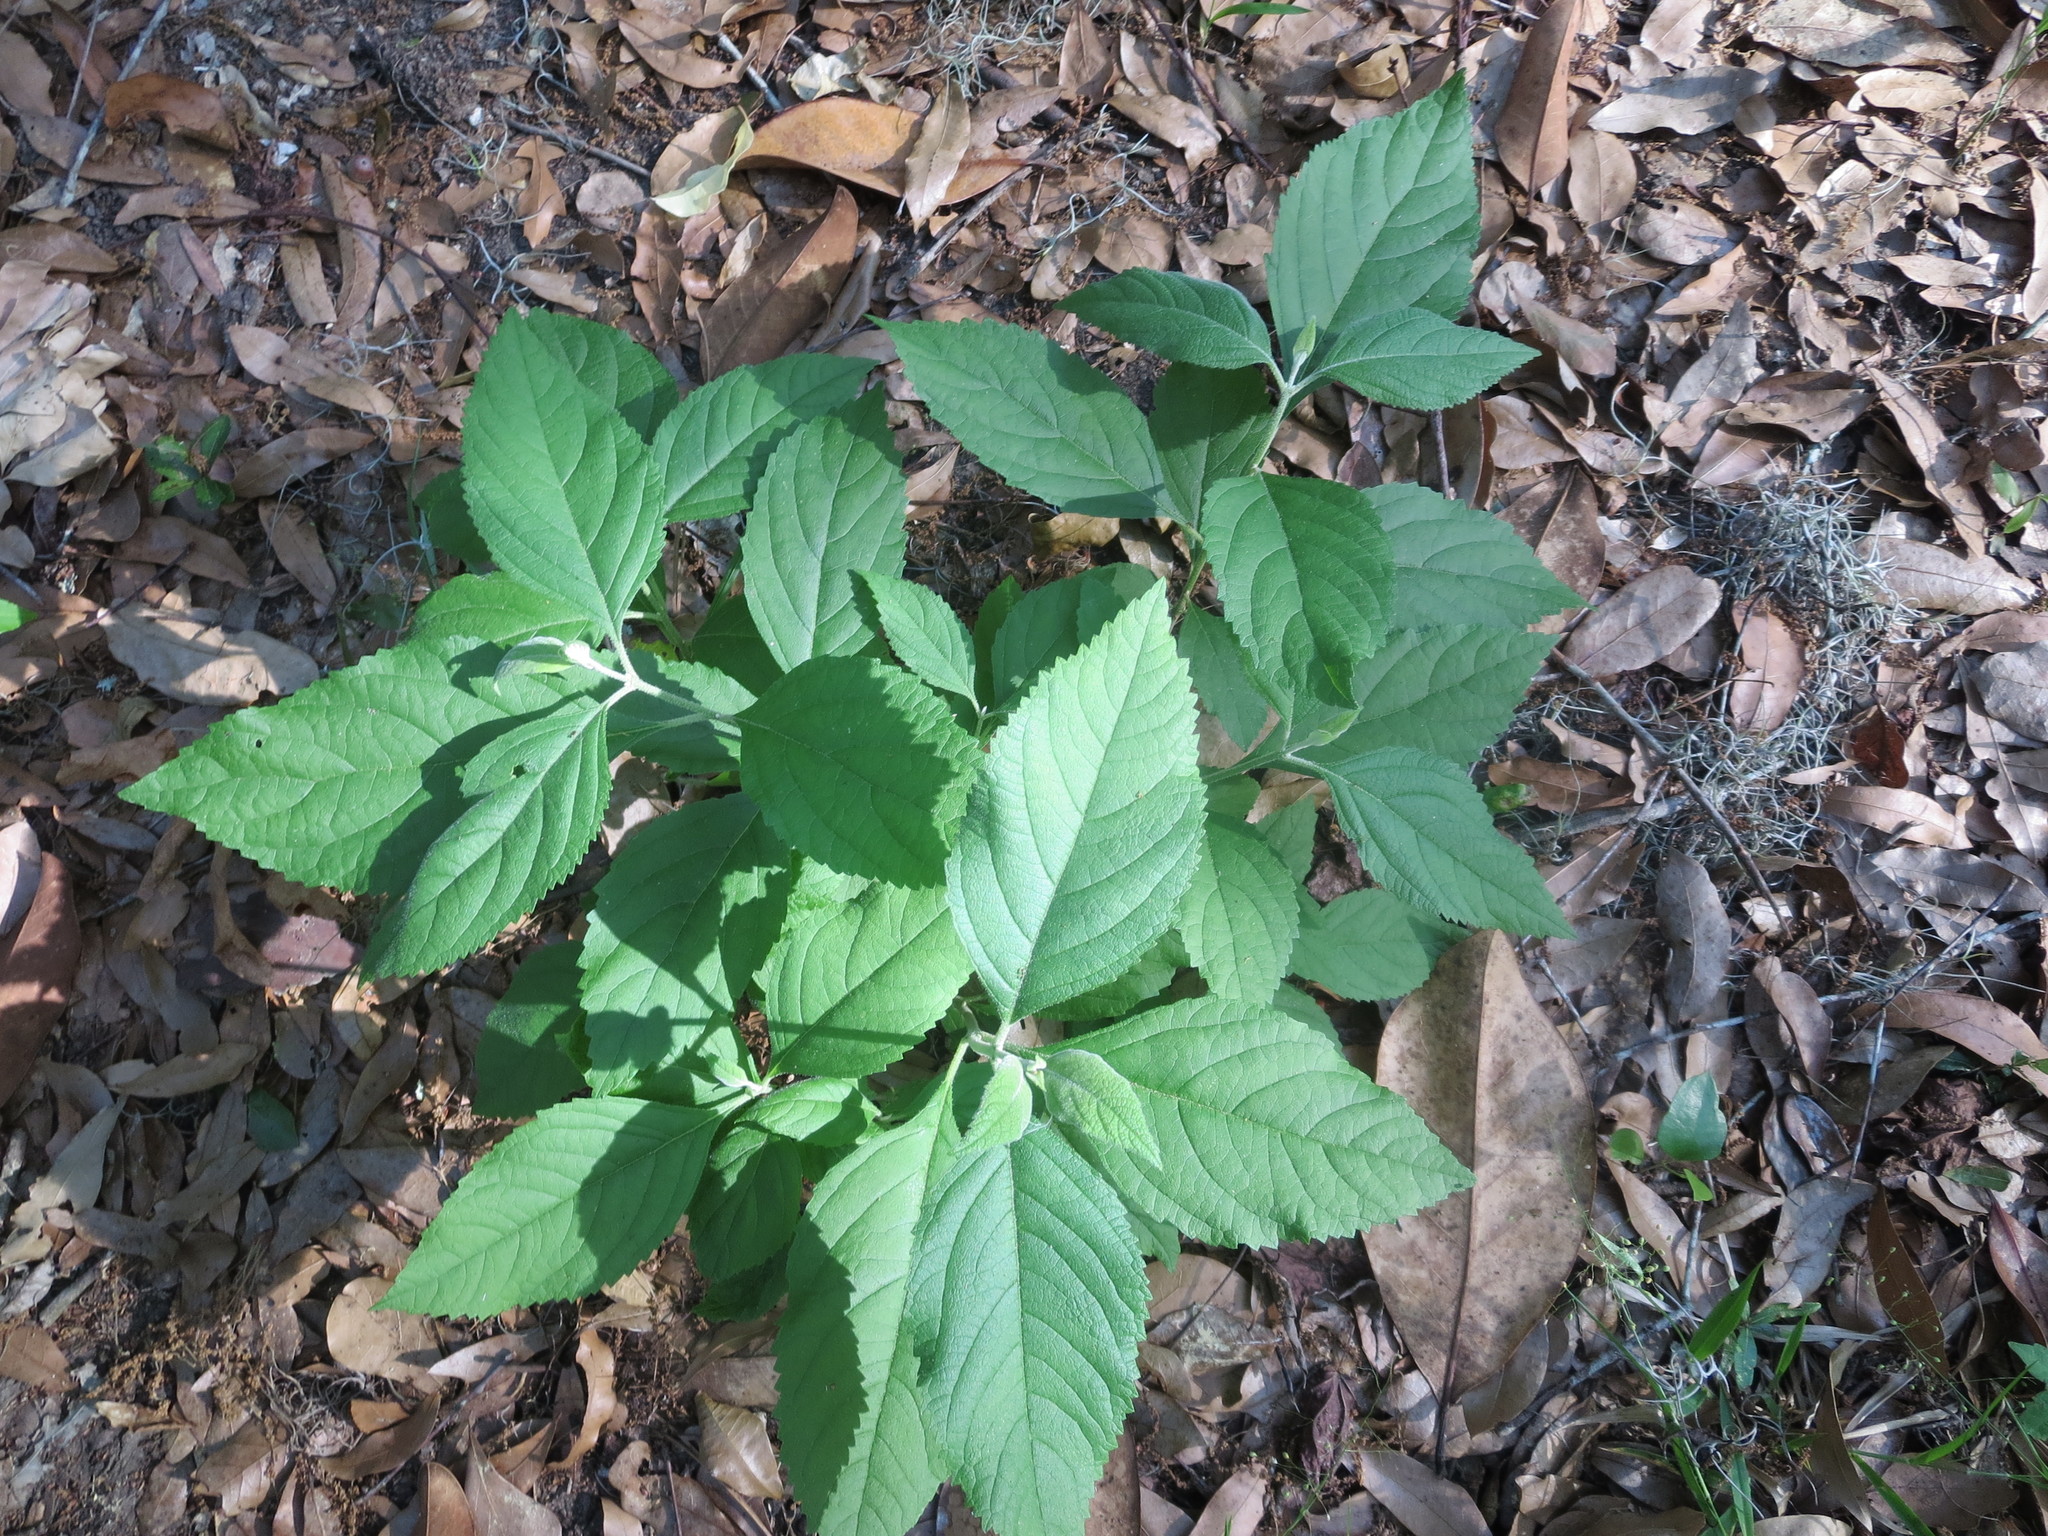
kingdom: Plantae
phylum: Tracheophyta
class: Magnoliopsida
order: Lamiales
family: Lamiaceae
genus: Callicarpa
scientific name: Callicarpa americana
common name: American beautyberry
